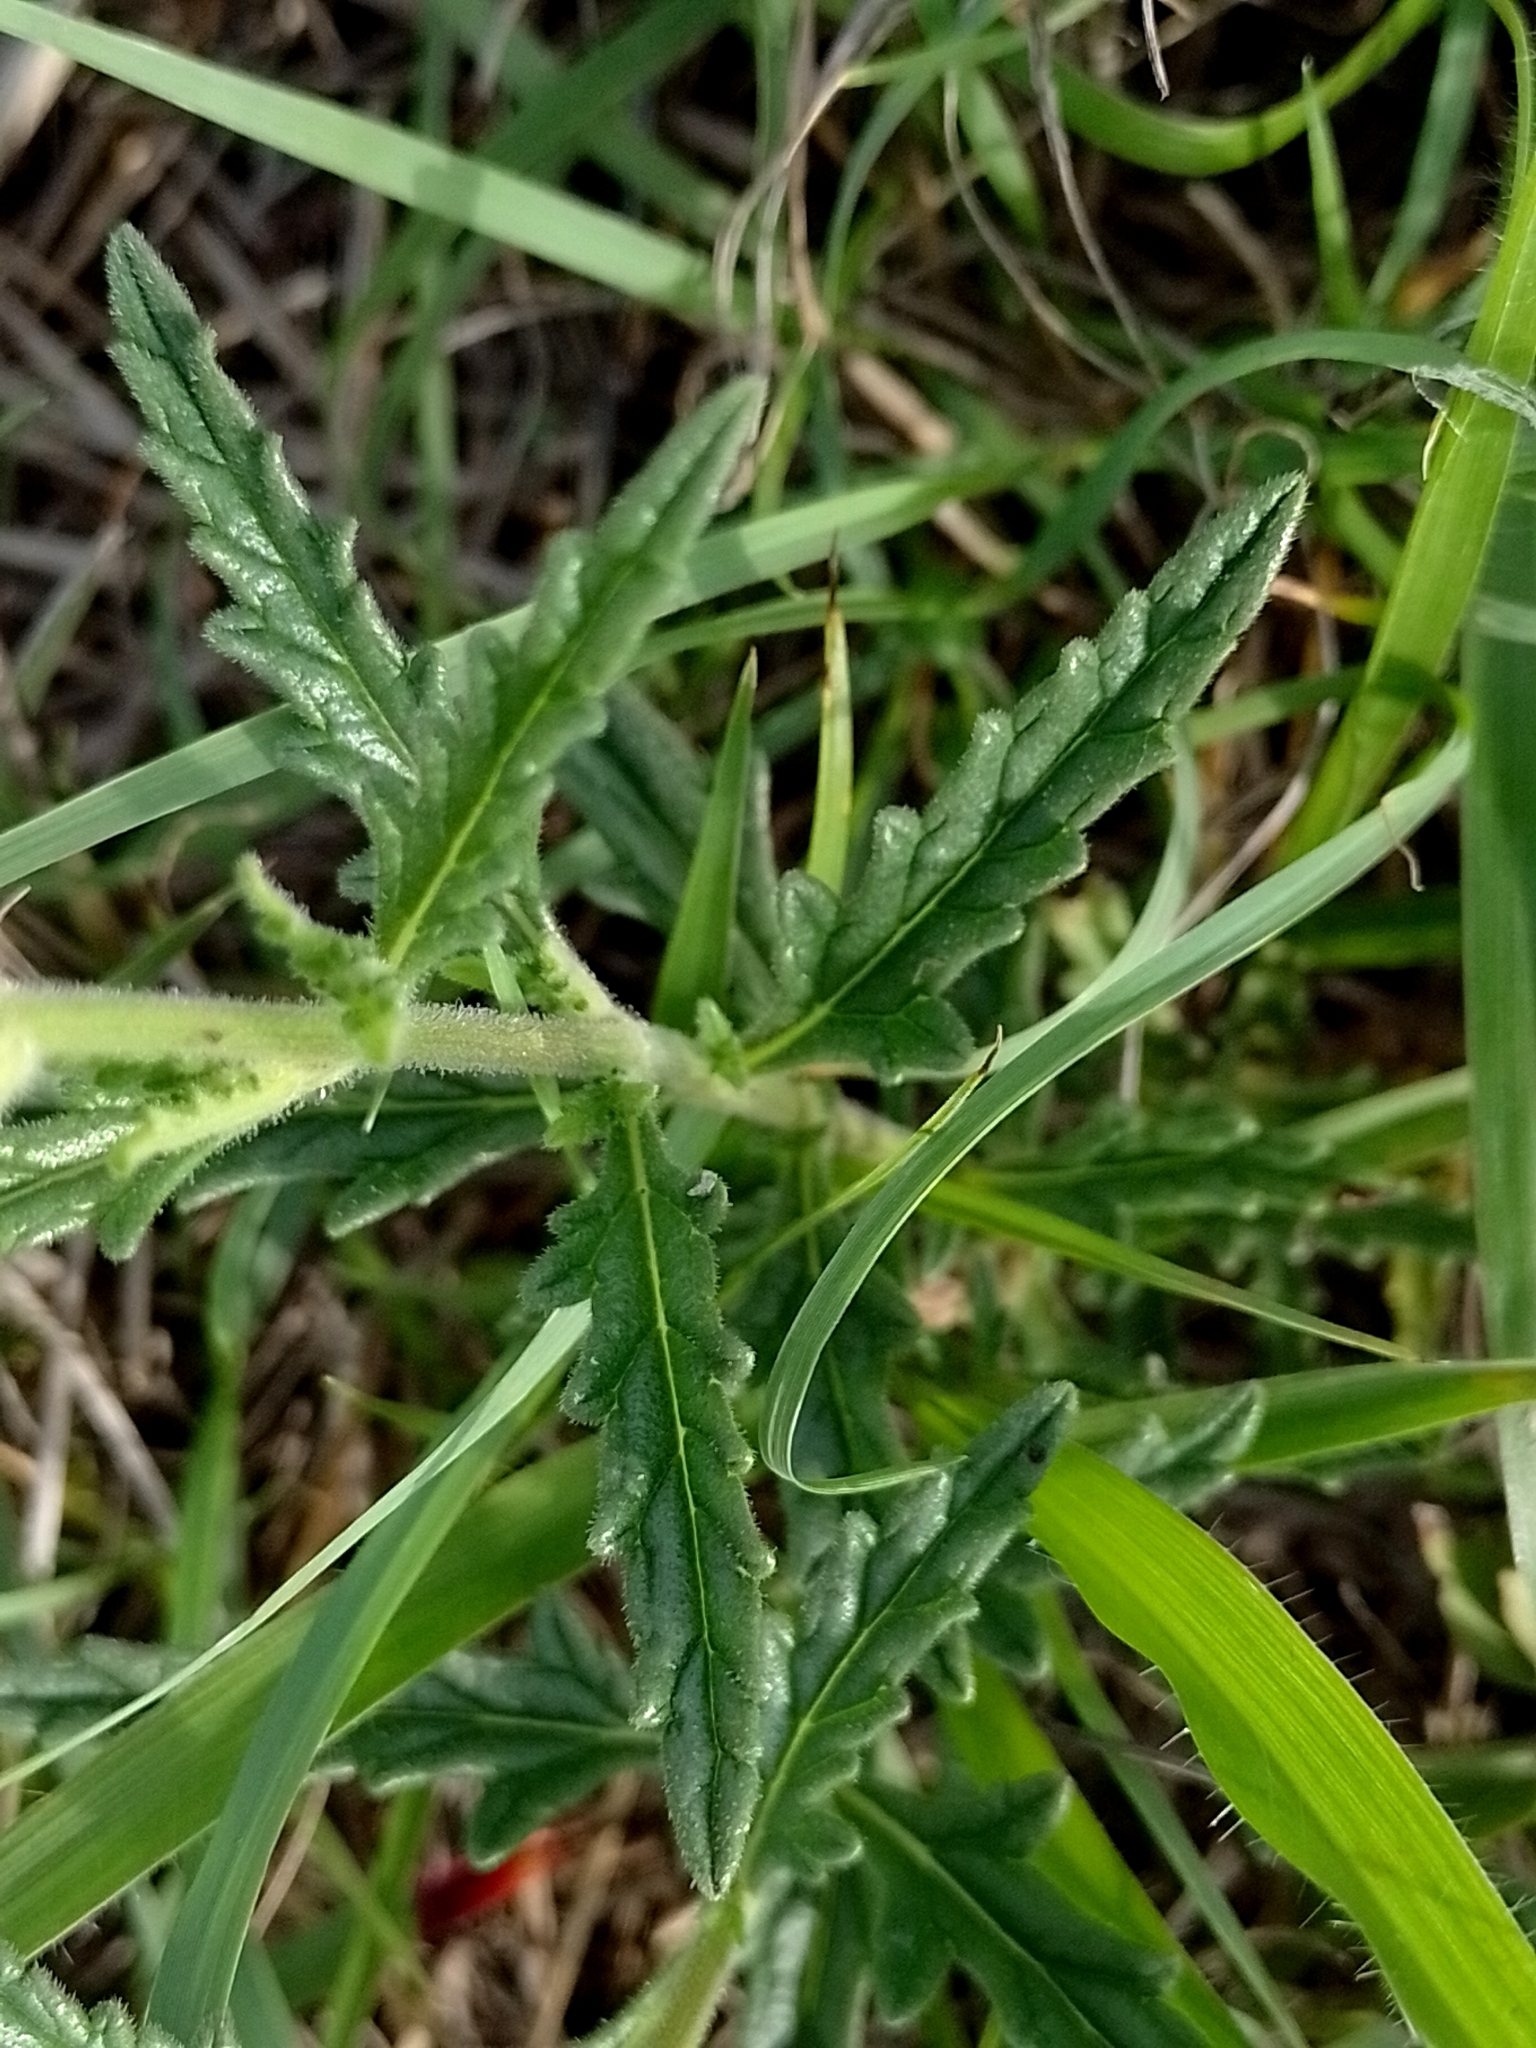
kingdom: Plantae
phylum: Tracheophyta
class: Magnoliopsida
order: Lamiales
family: Verbenaceae
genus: Verbena
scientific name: Verbena platensis
